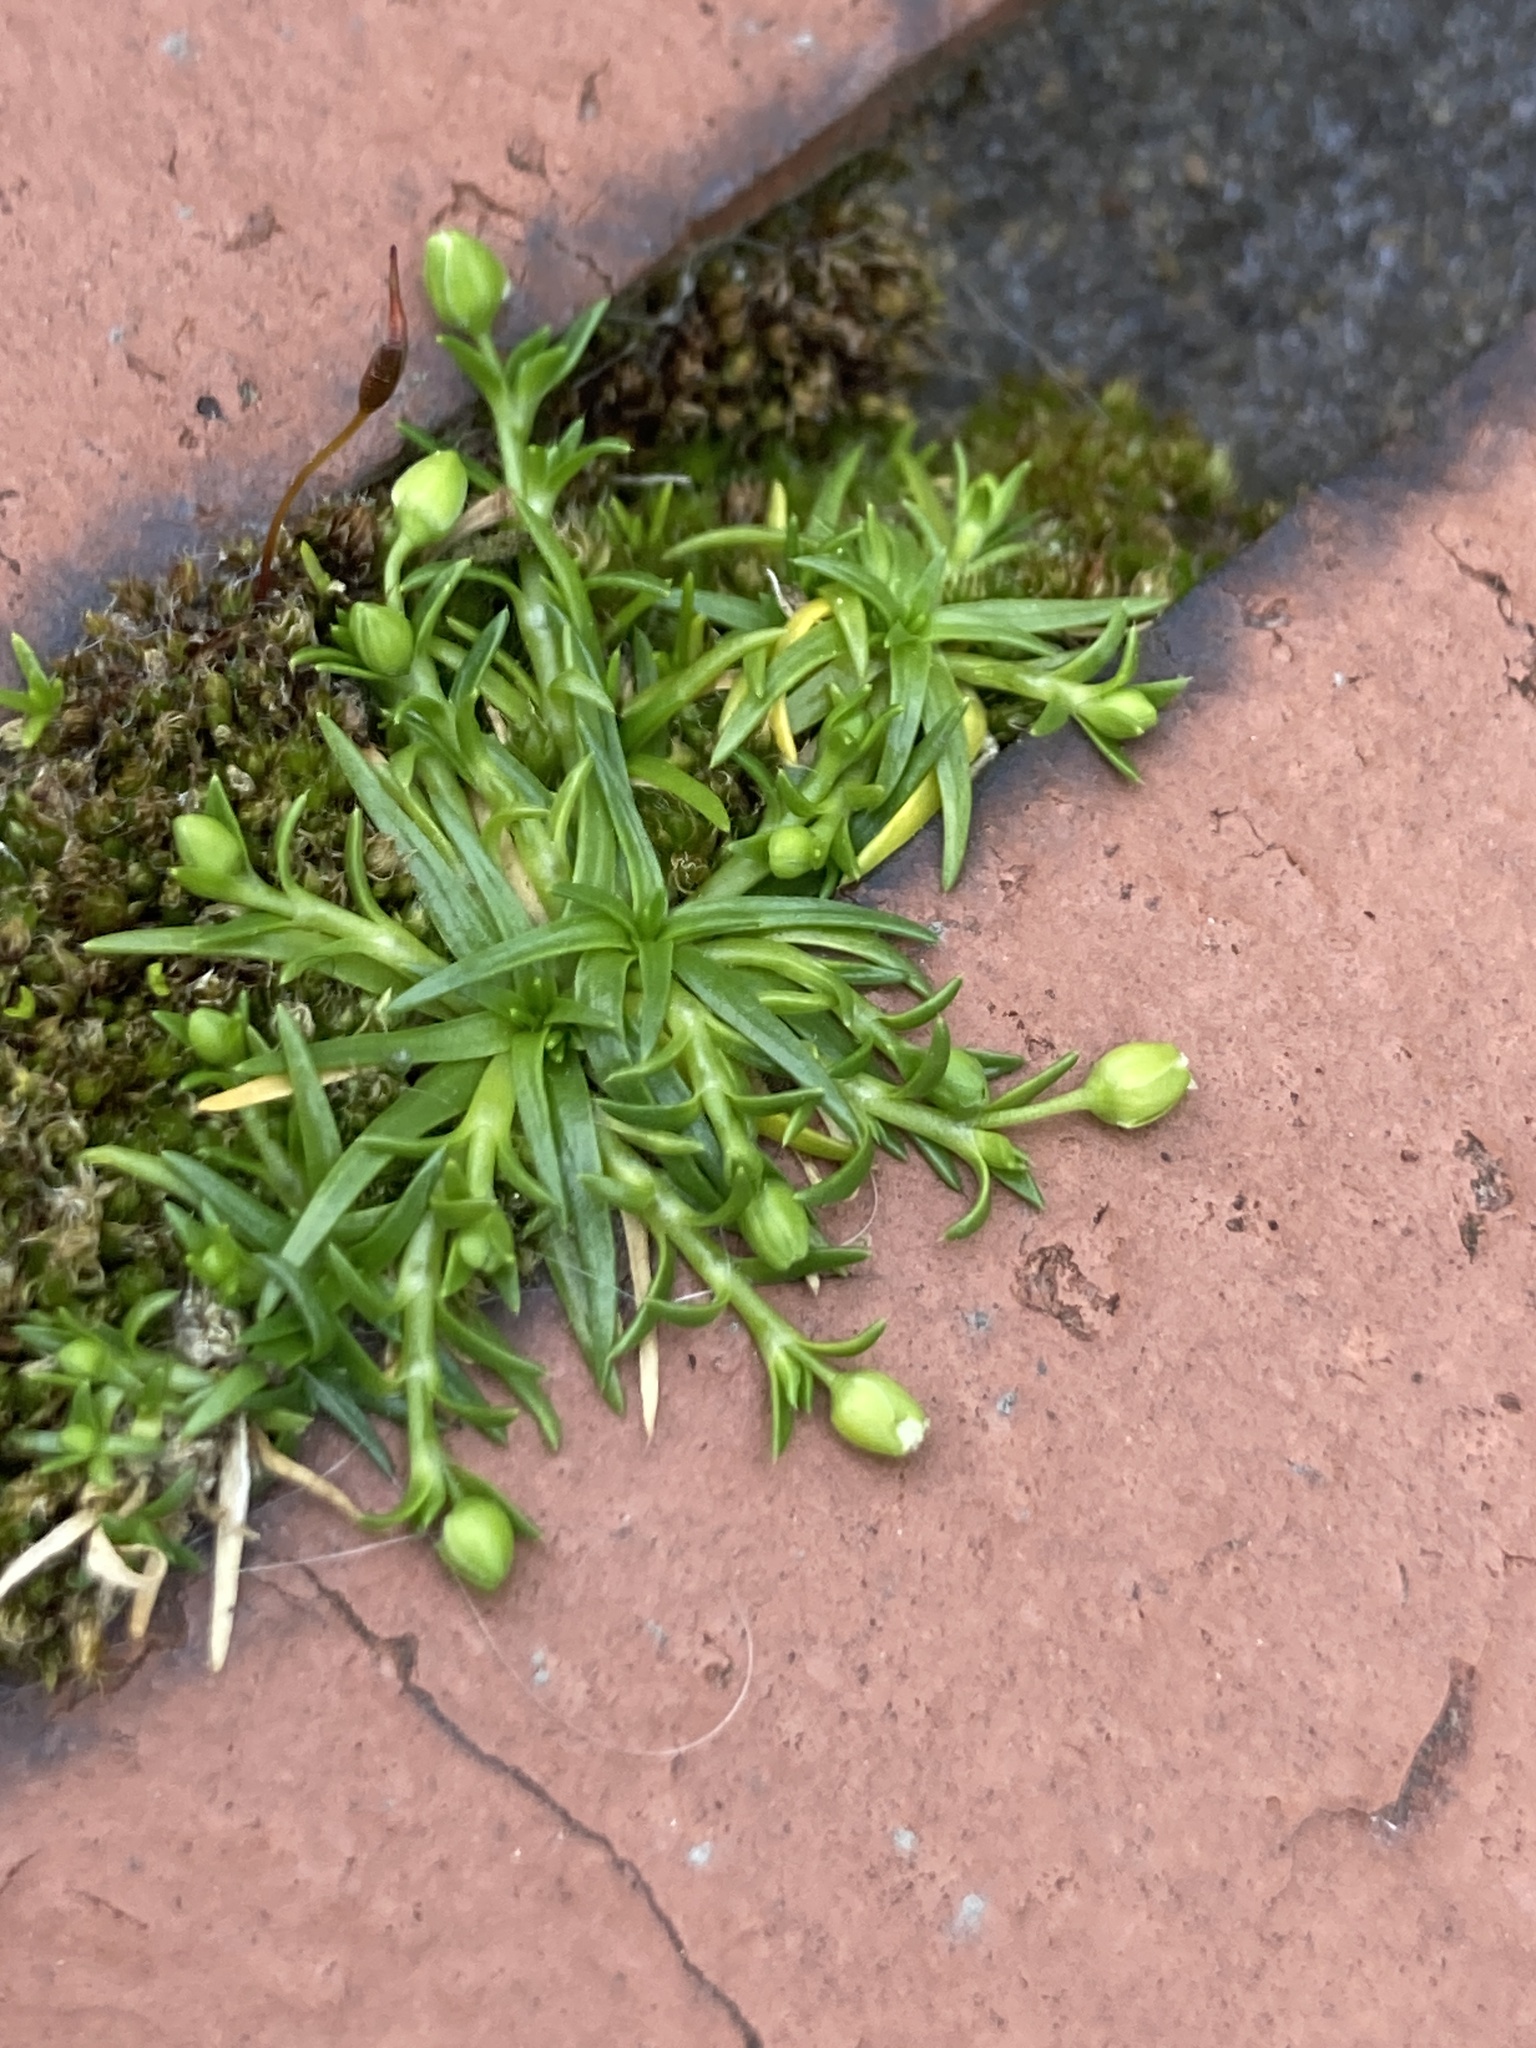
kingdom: Plantae
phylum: Tracheophyta
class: Magnoliopsida
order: Caryophyllales
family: Caryophyllaceae
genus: Sagina
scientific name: Sagina procumbens
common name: Procumbent pearlwort
